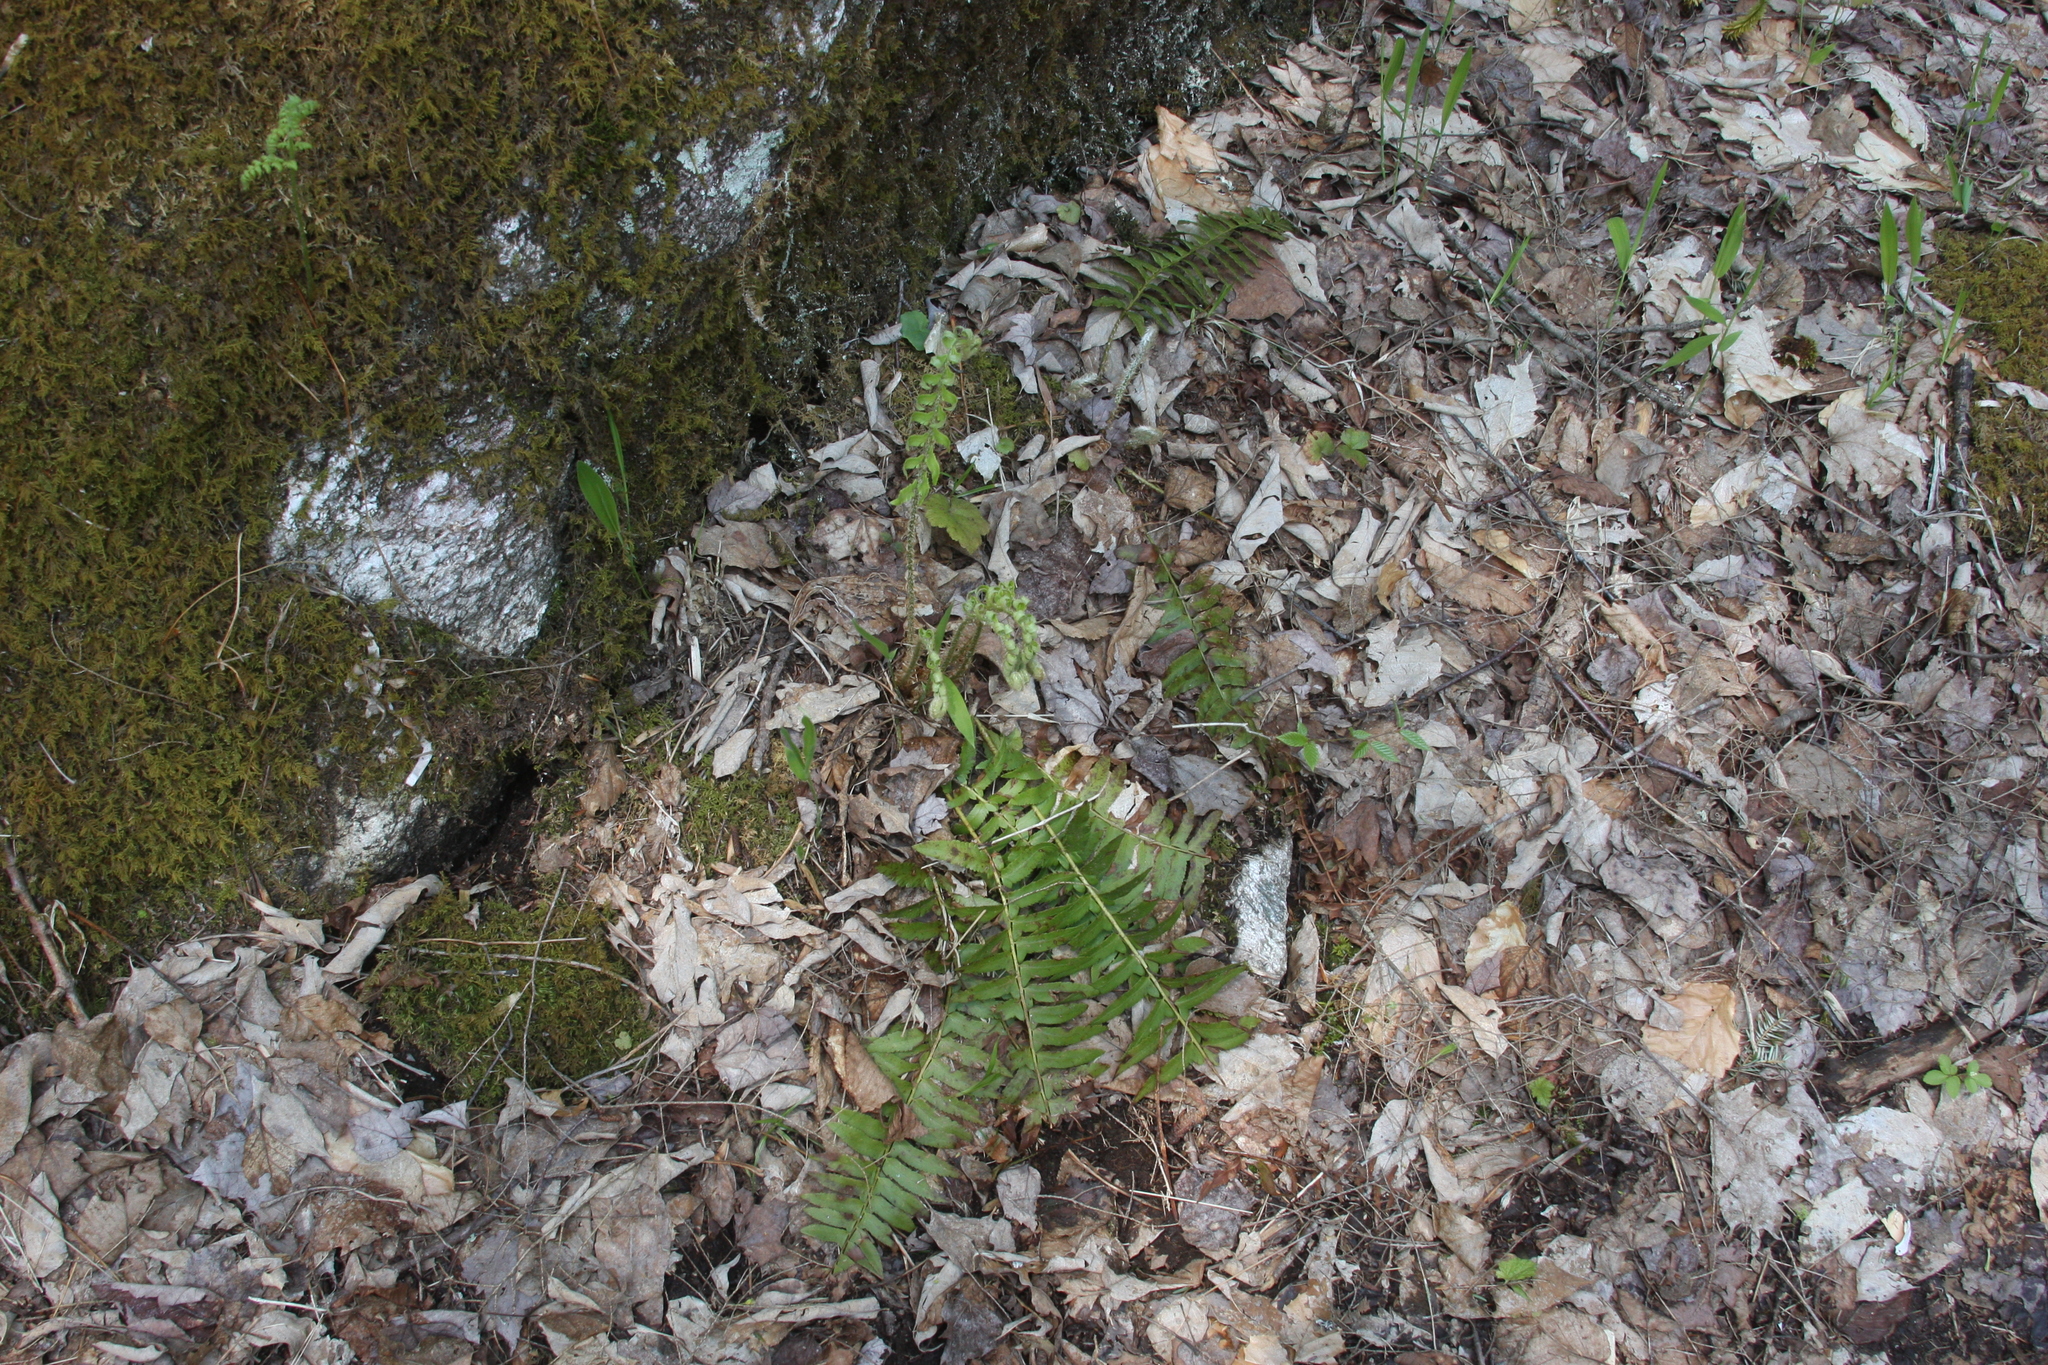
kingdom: Plantae
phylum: Tracheophyta
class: Polypodiopsida
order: Polypodiales
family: Dryopteridaceae
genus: Polystichum
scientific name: Polystichum acrostichoides
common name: Christmas fern
